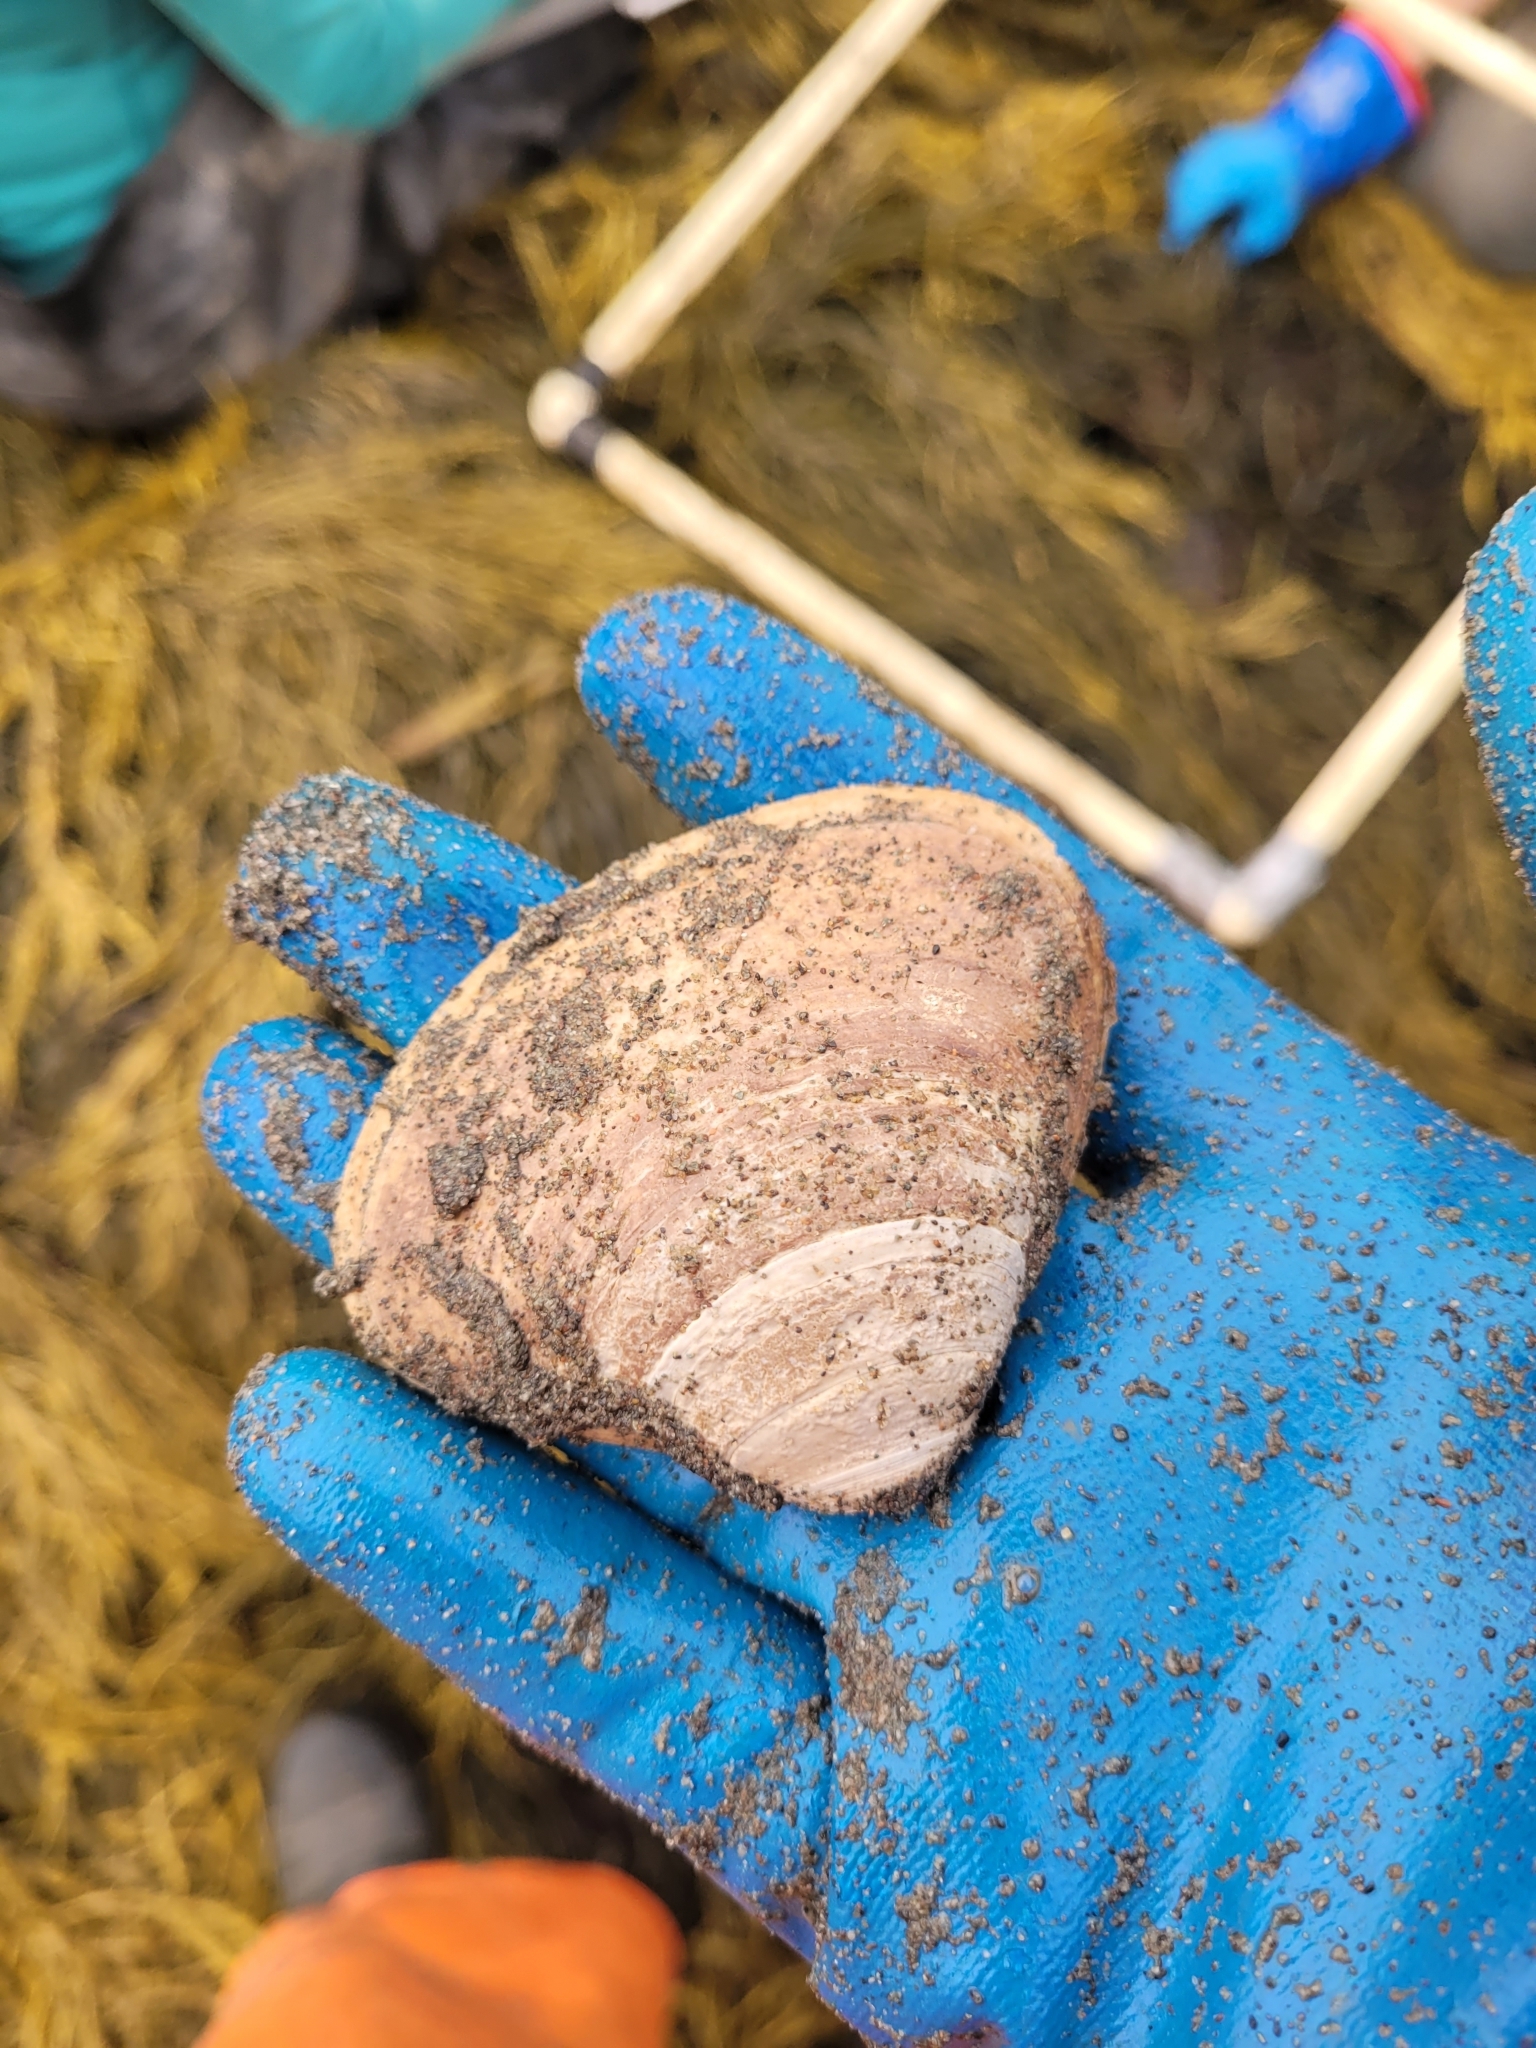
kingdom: Animalia
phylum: Mollusca
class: Bivalvia
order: Venerida
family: Mactridae
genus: Spisula
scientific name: Spisula solidissima
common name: Atlantic surf clam
